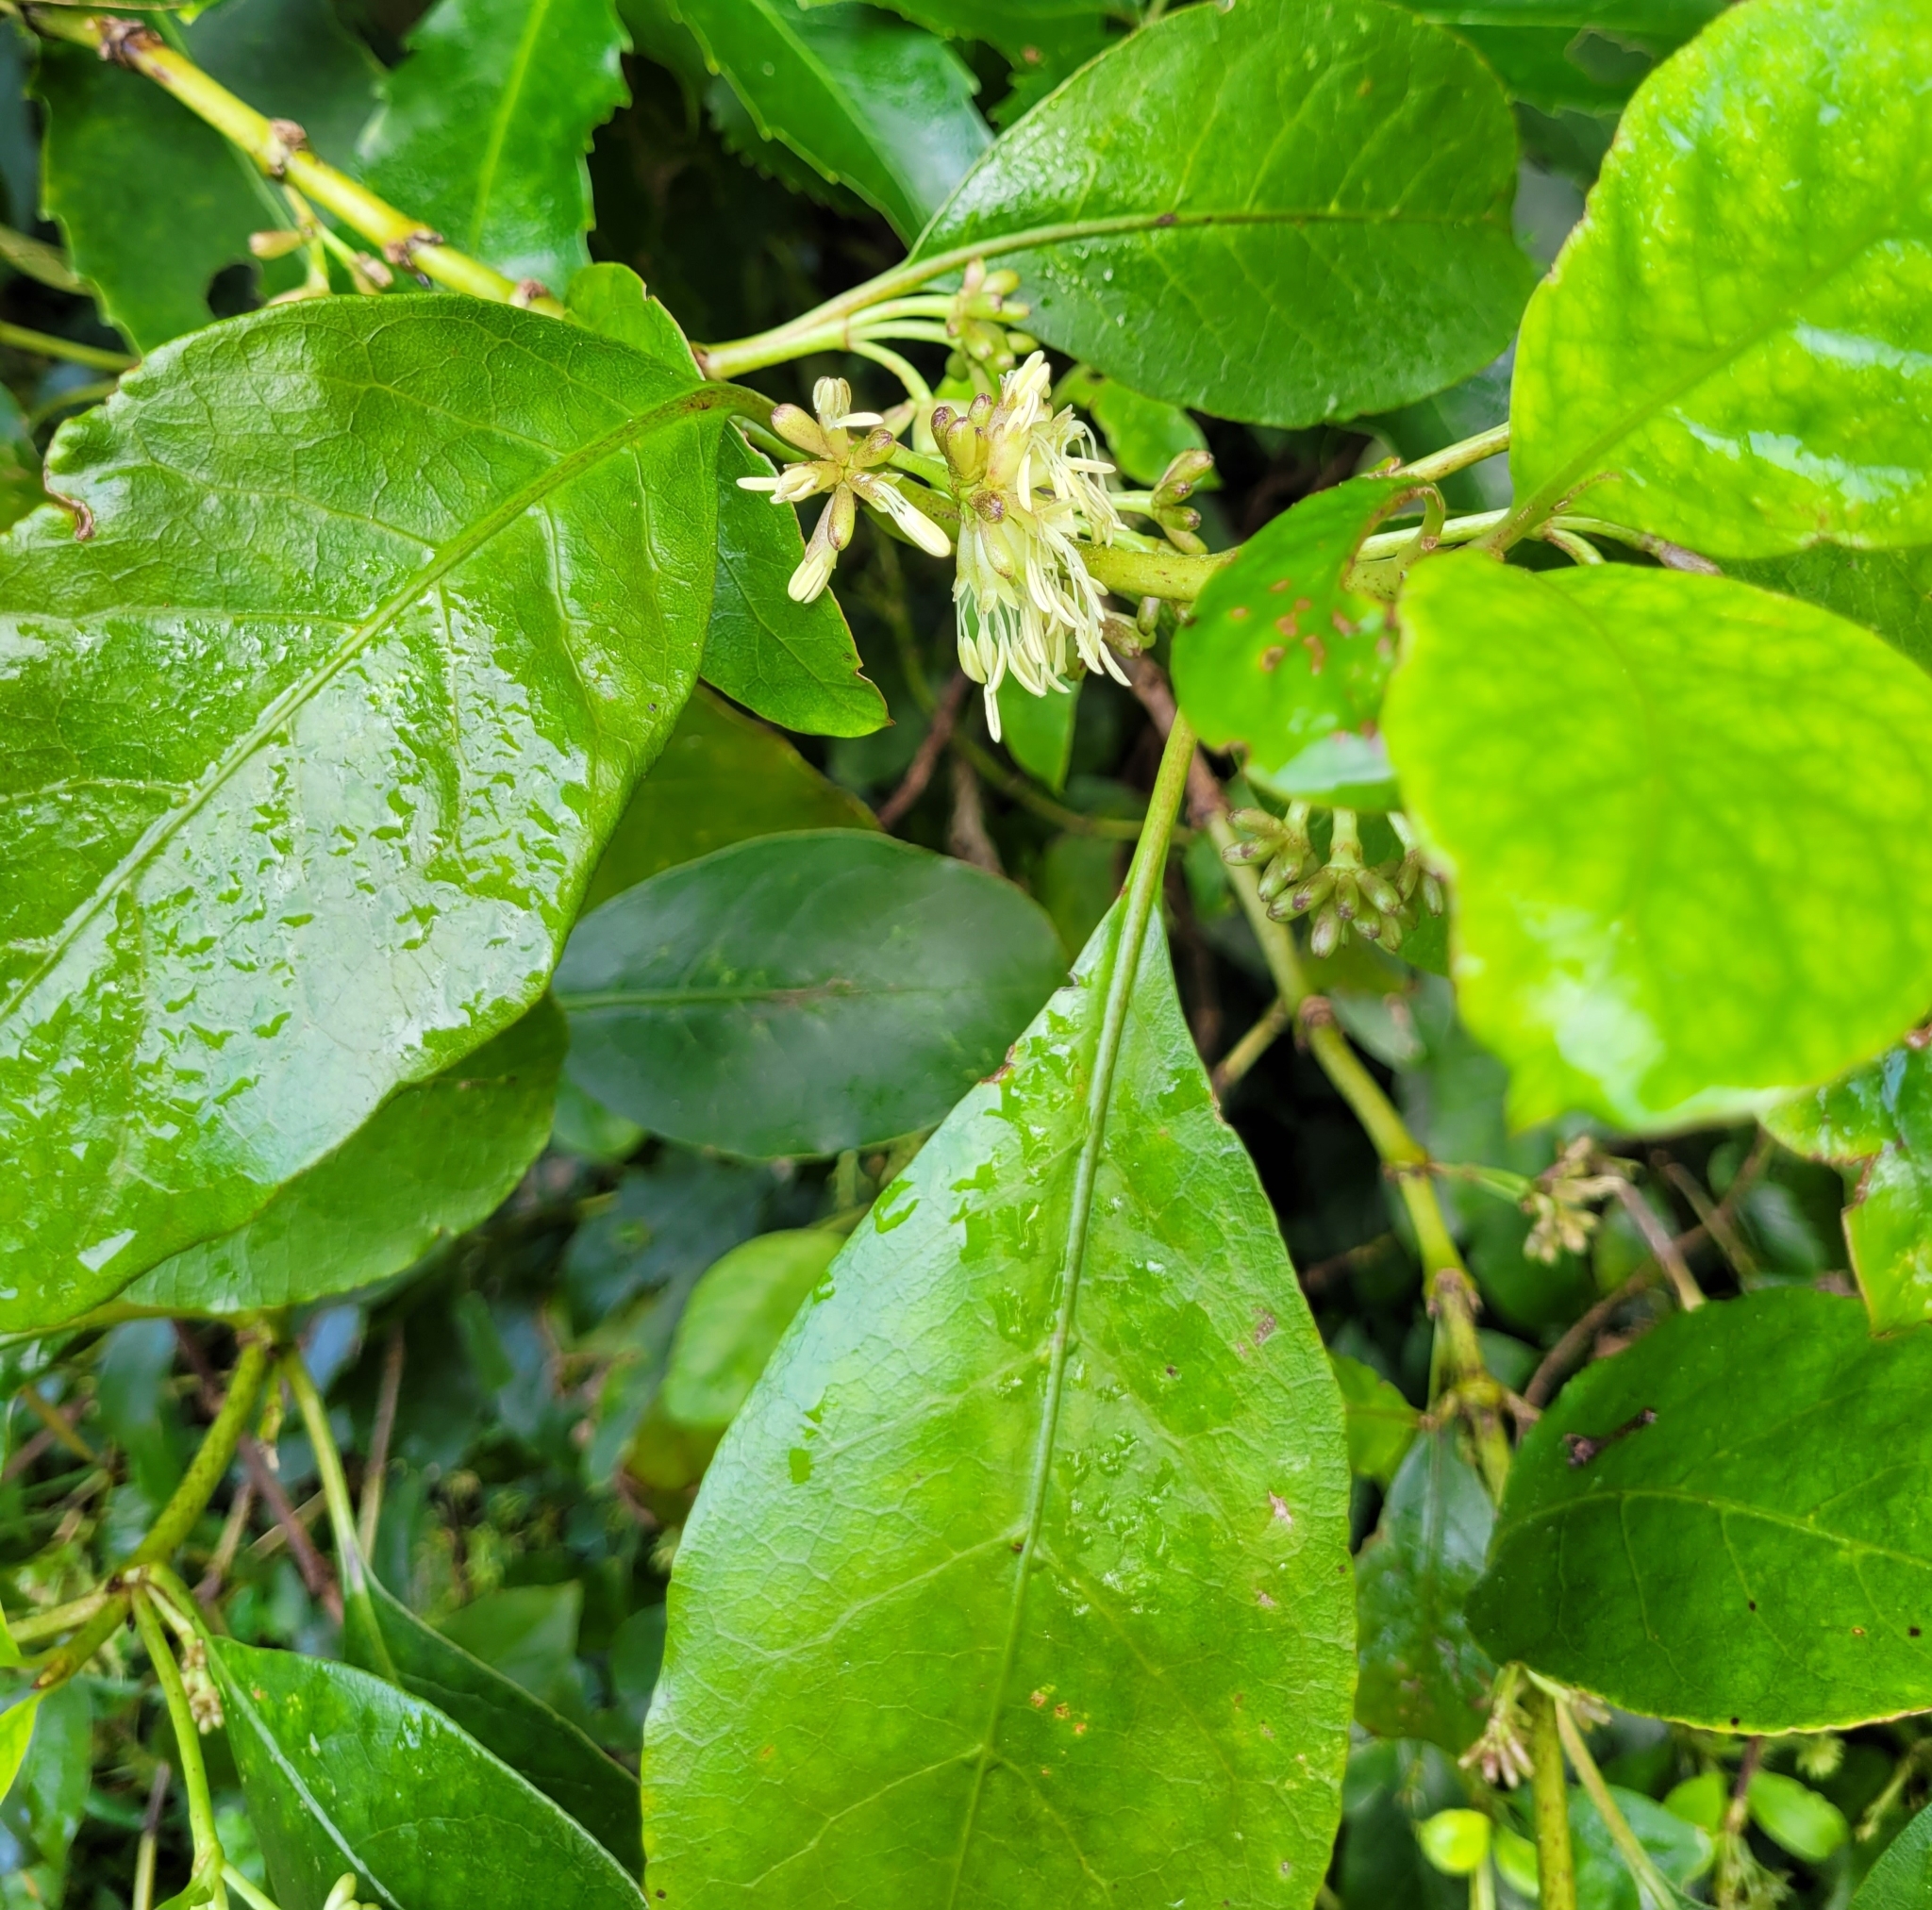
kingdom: Plantae
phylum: Tracheophyta
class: Magnoliopsida
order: Gentianales
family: Rubiaceae
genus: Coprosma
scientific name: Coprosma autumnalis
